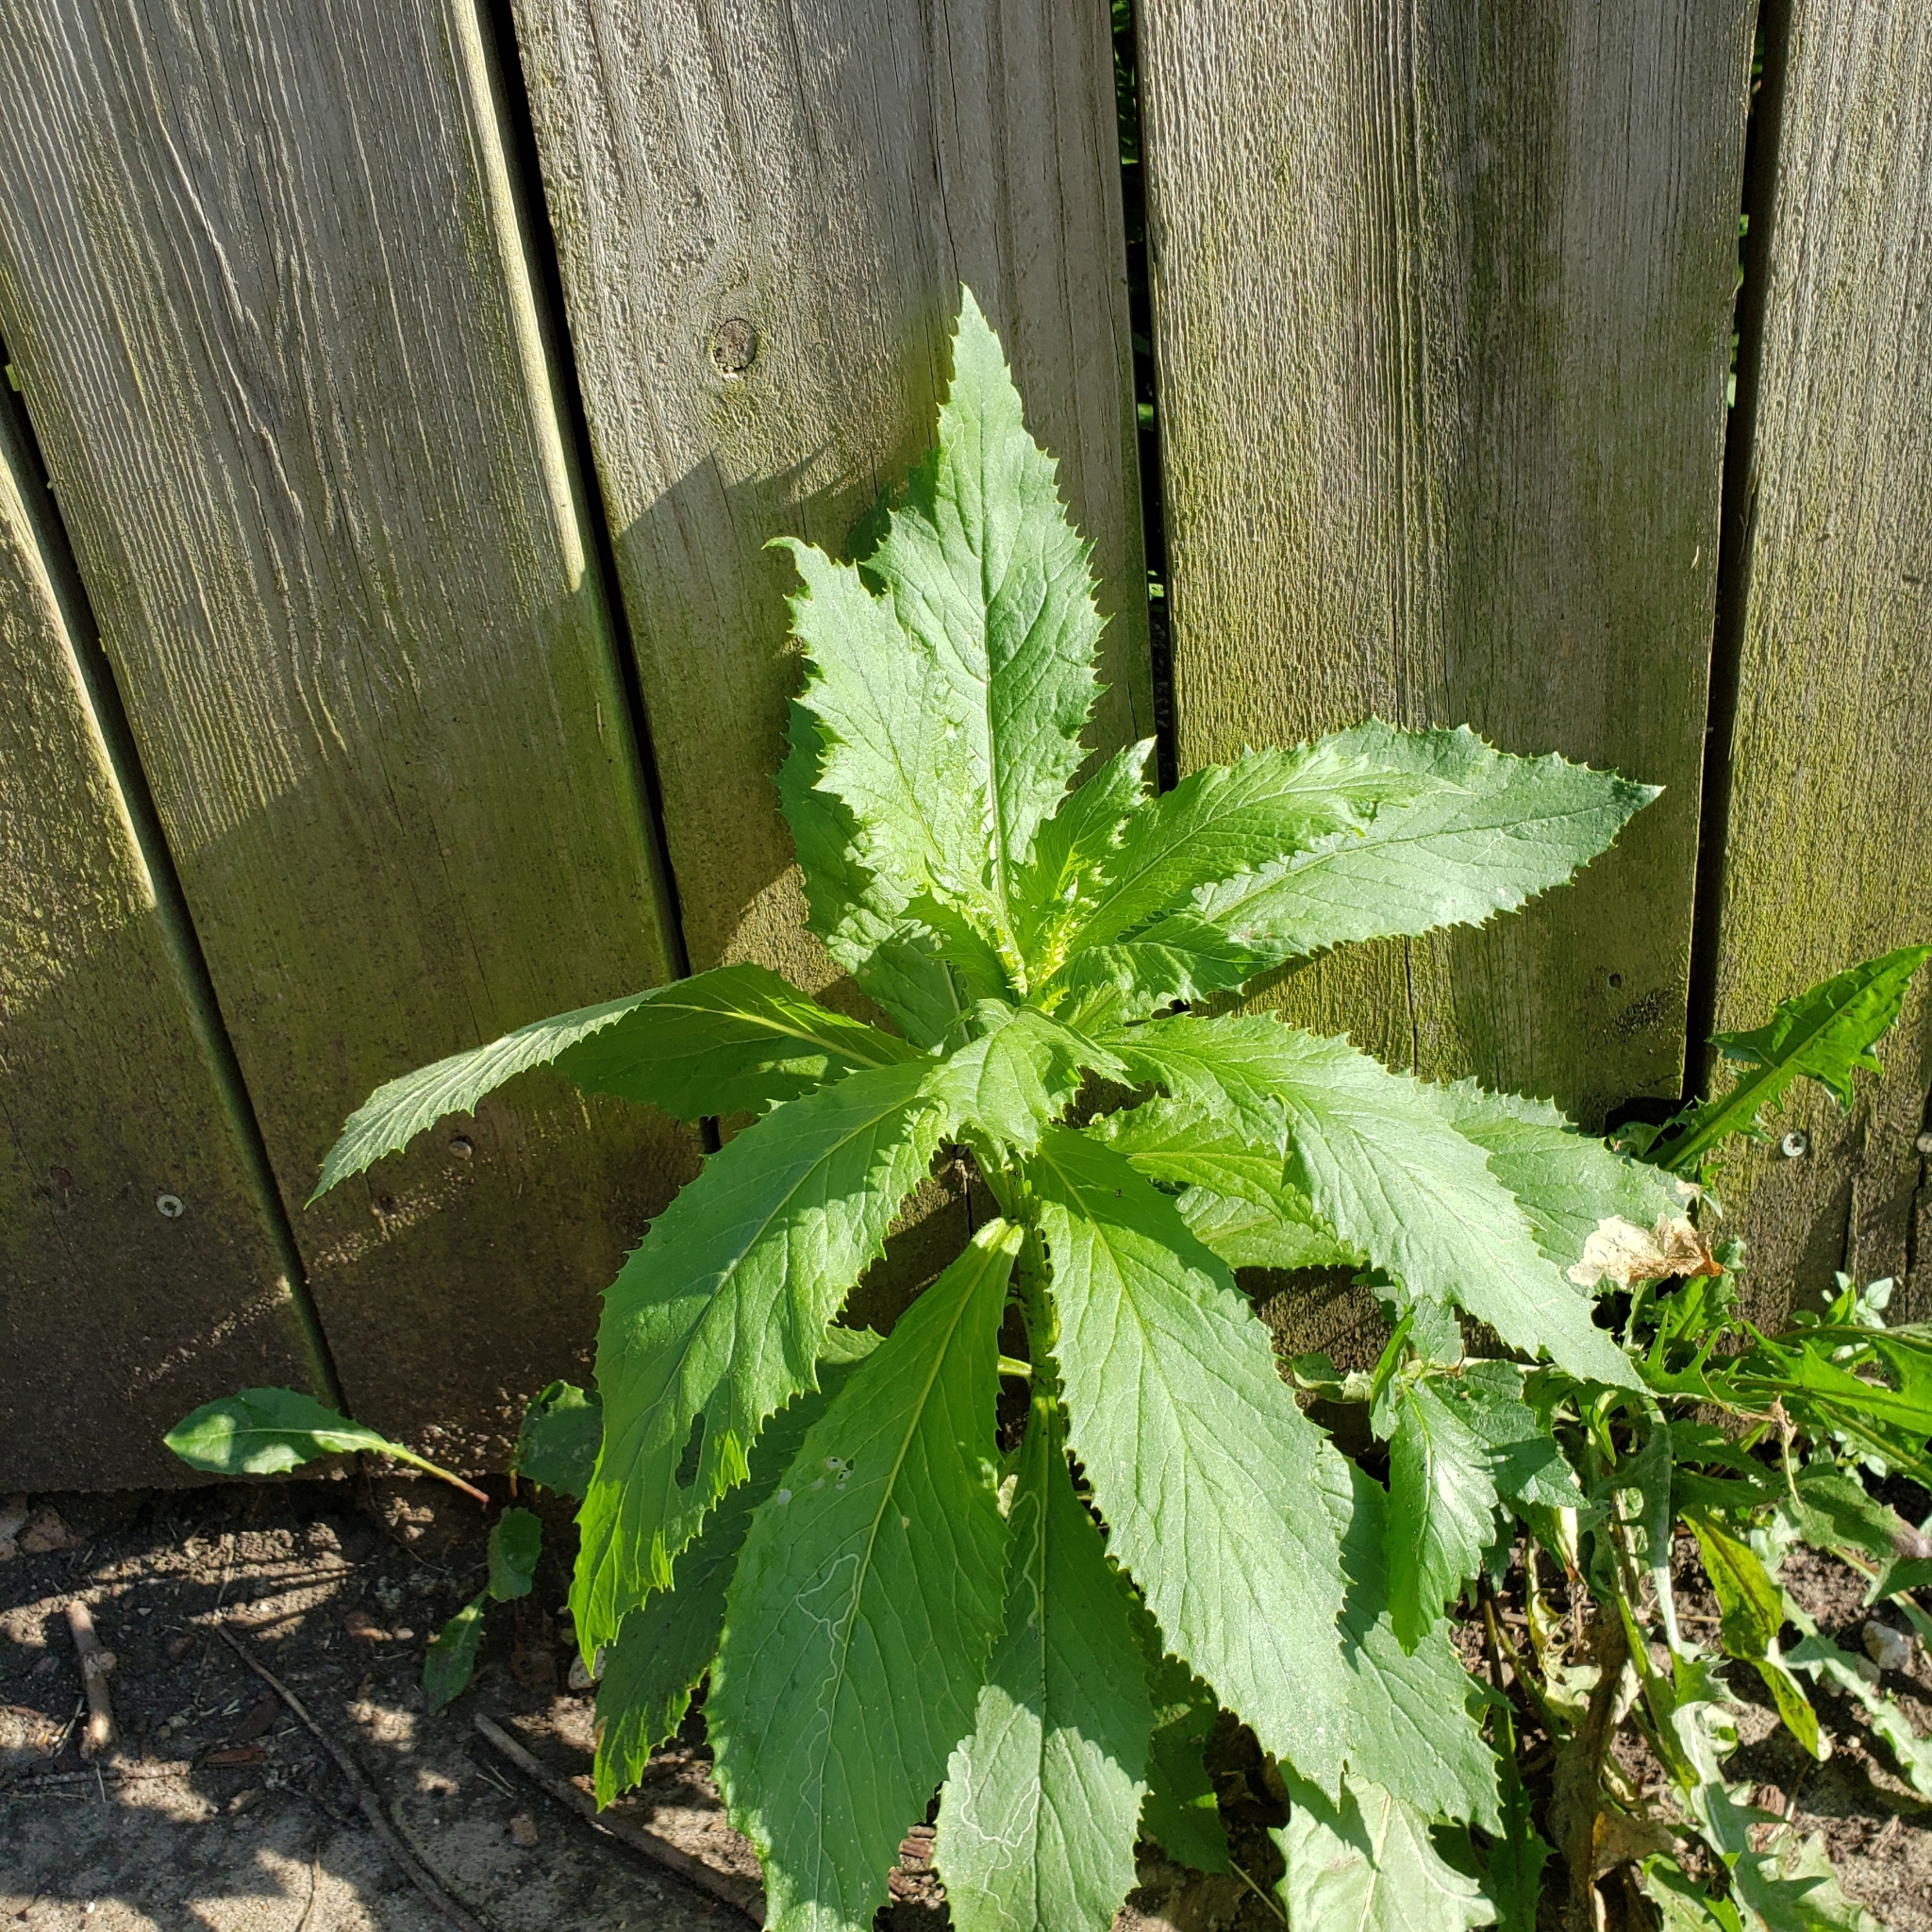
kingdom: Plantae
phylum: Tracheophyta
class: Magnoliopsida
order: Asterales
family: Asteraceae
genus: Erechtites
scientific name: Erechtites hieraciifolius
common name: American burnweed
